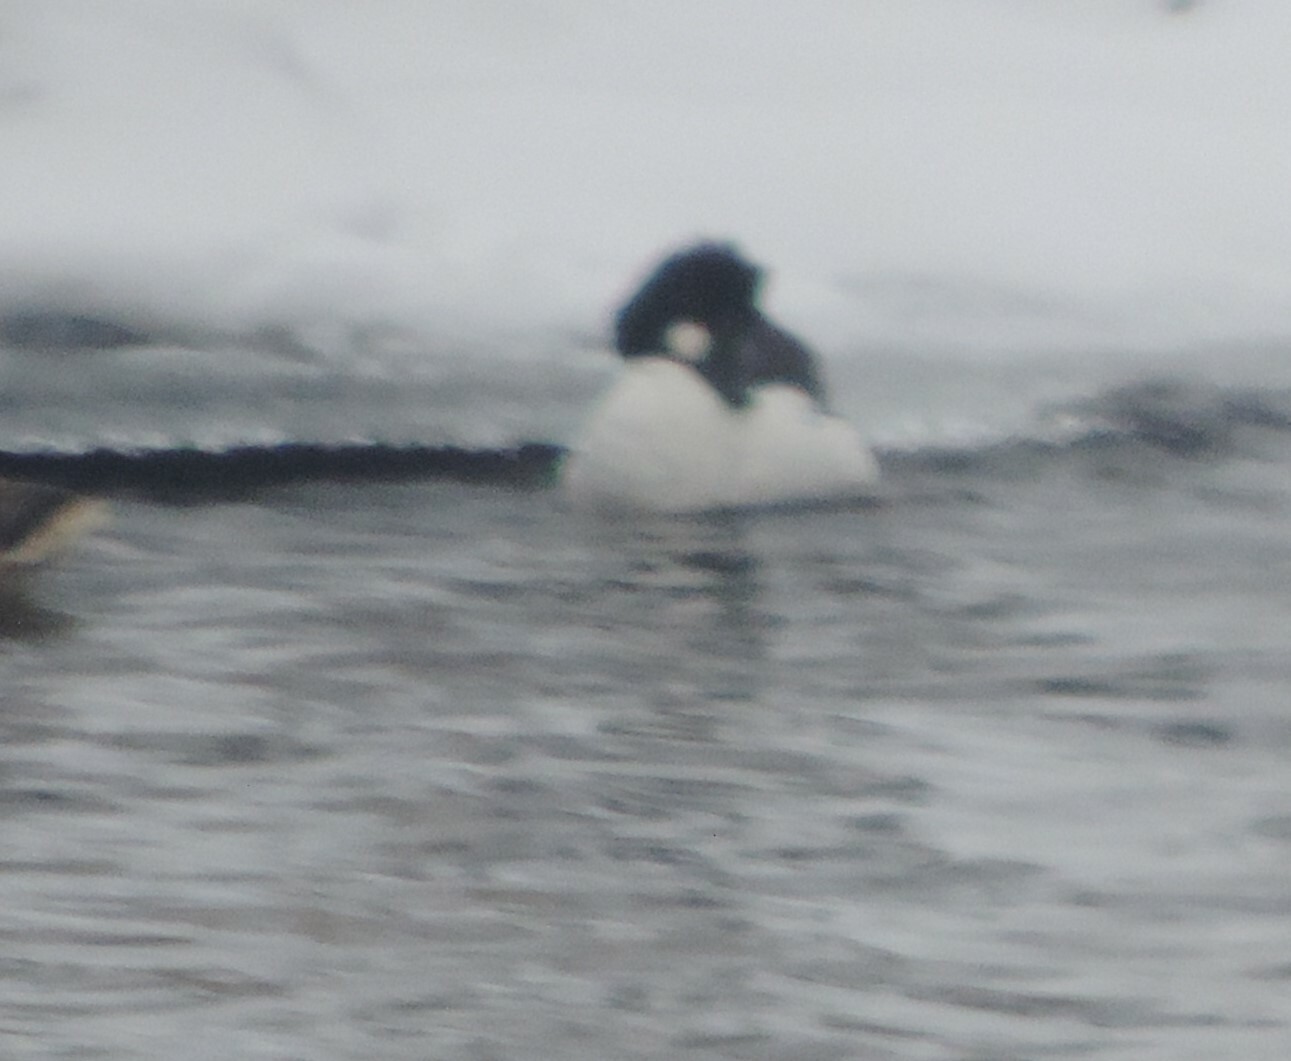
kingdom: Animalia
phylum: Chordata
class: Aves
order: Anseriformes
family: Anatidae
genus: Bucephala
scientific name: Bucephala clangula
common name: Common goldeneye
